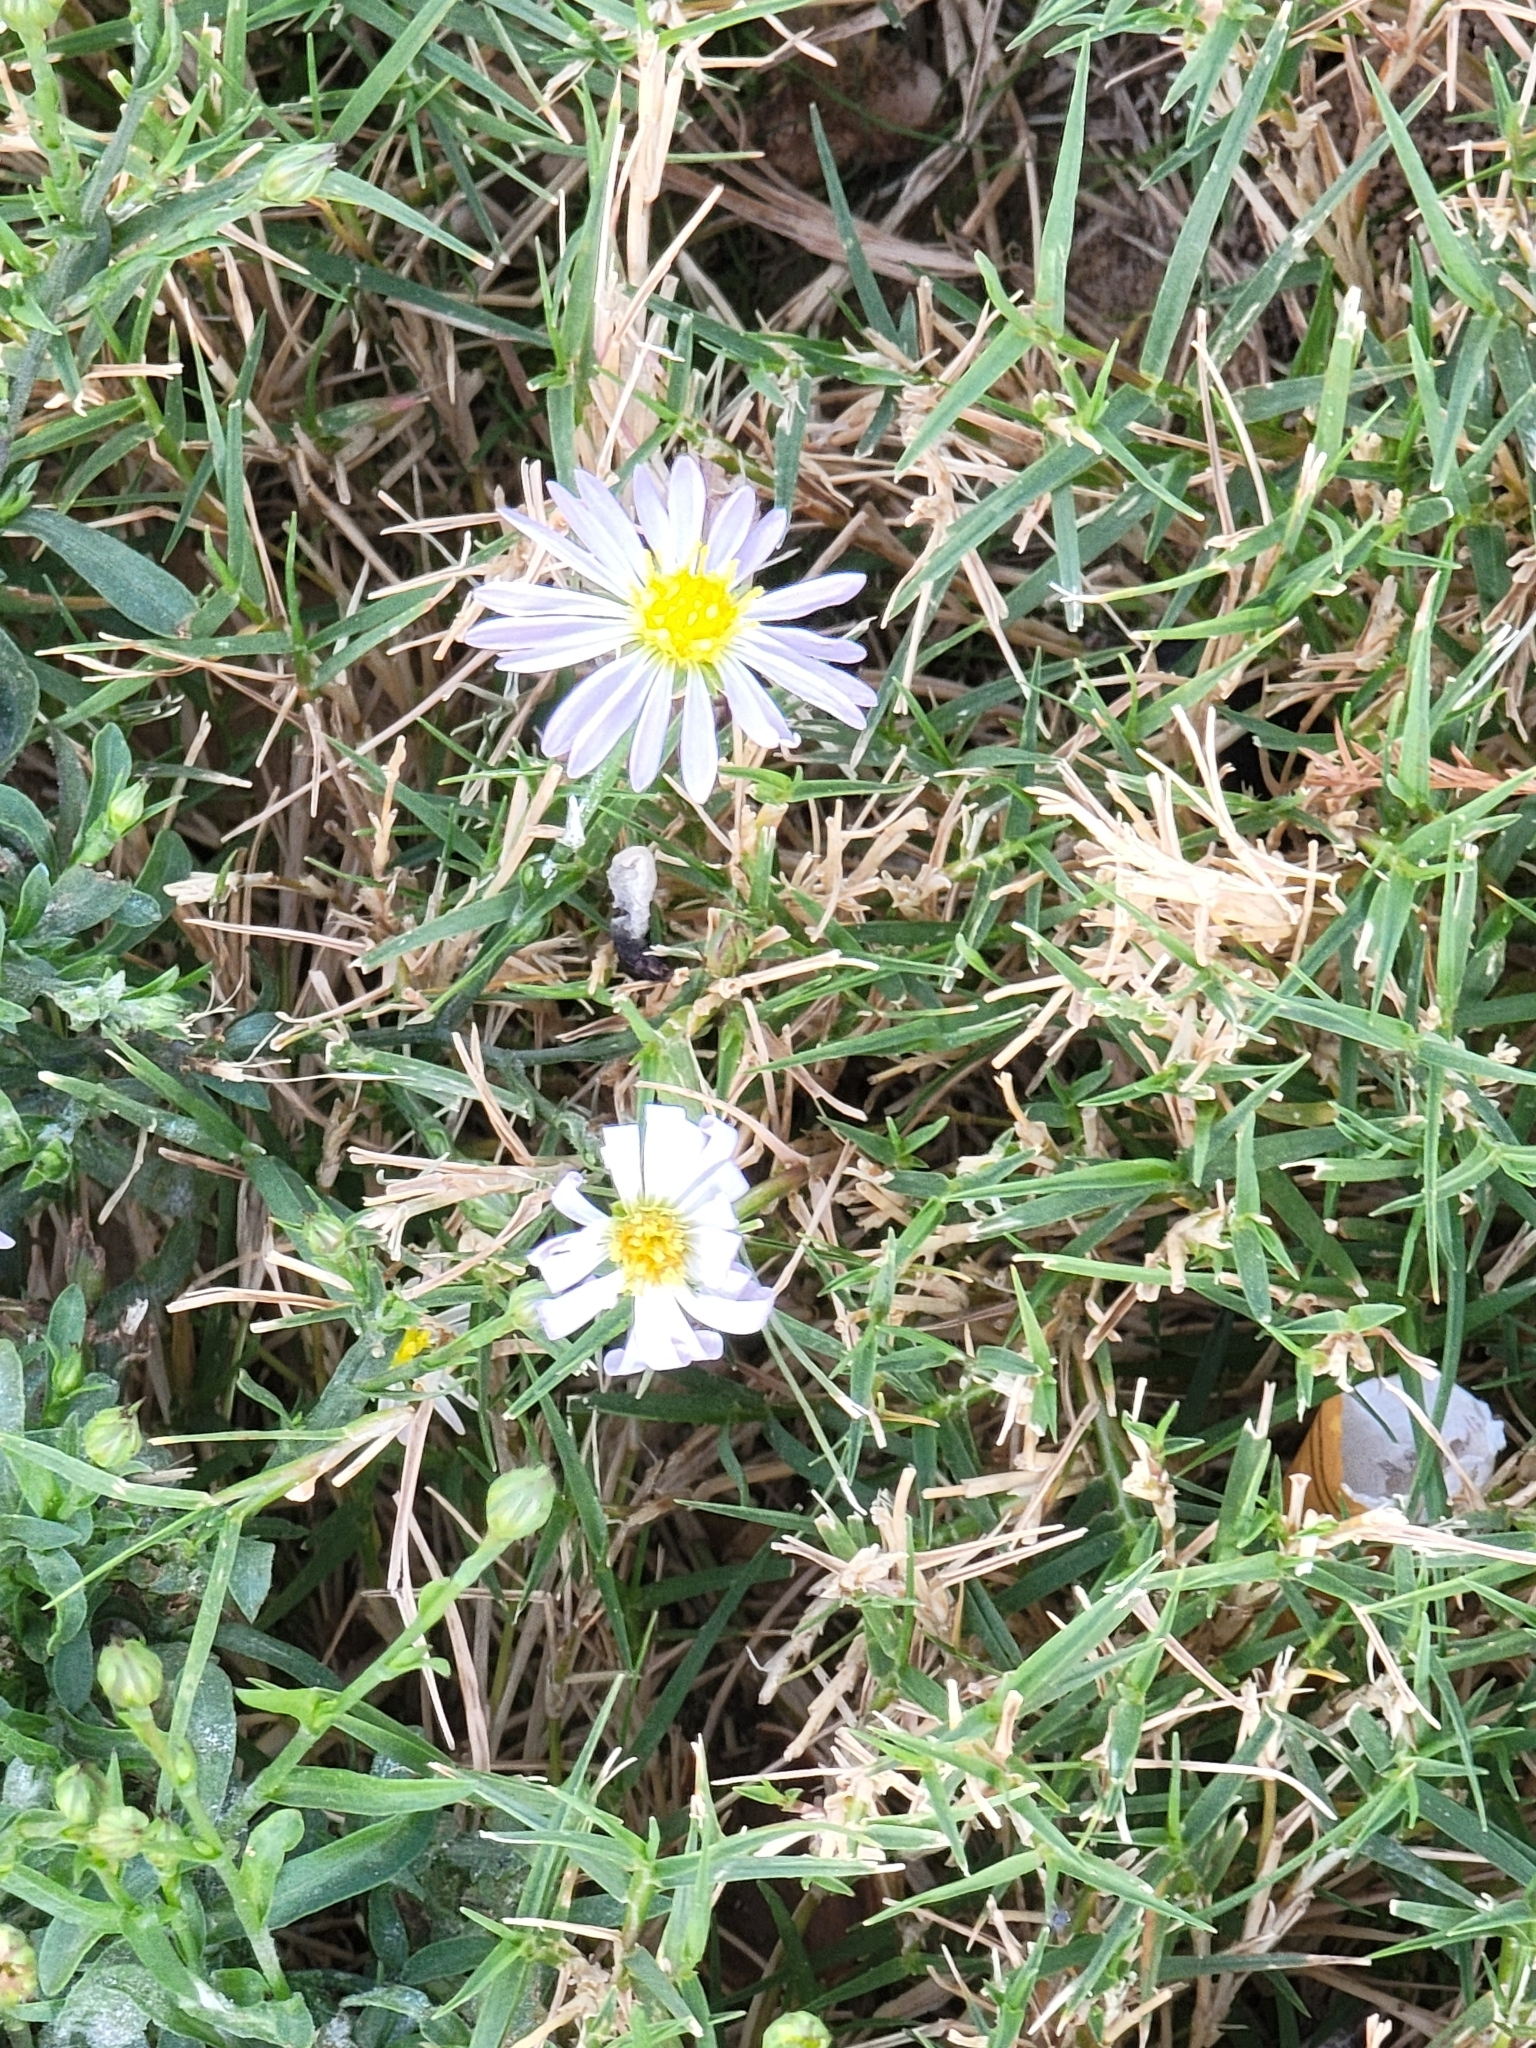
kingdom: Plantae
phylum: Tracheophyta
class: Magnoliopsida
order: Asterales
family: Asteraceae
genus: Symphyotrichum
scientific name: Symphyotrichum divaricatum
